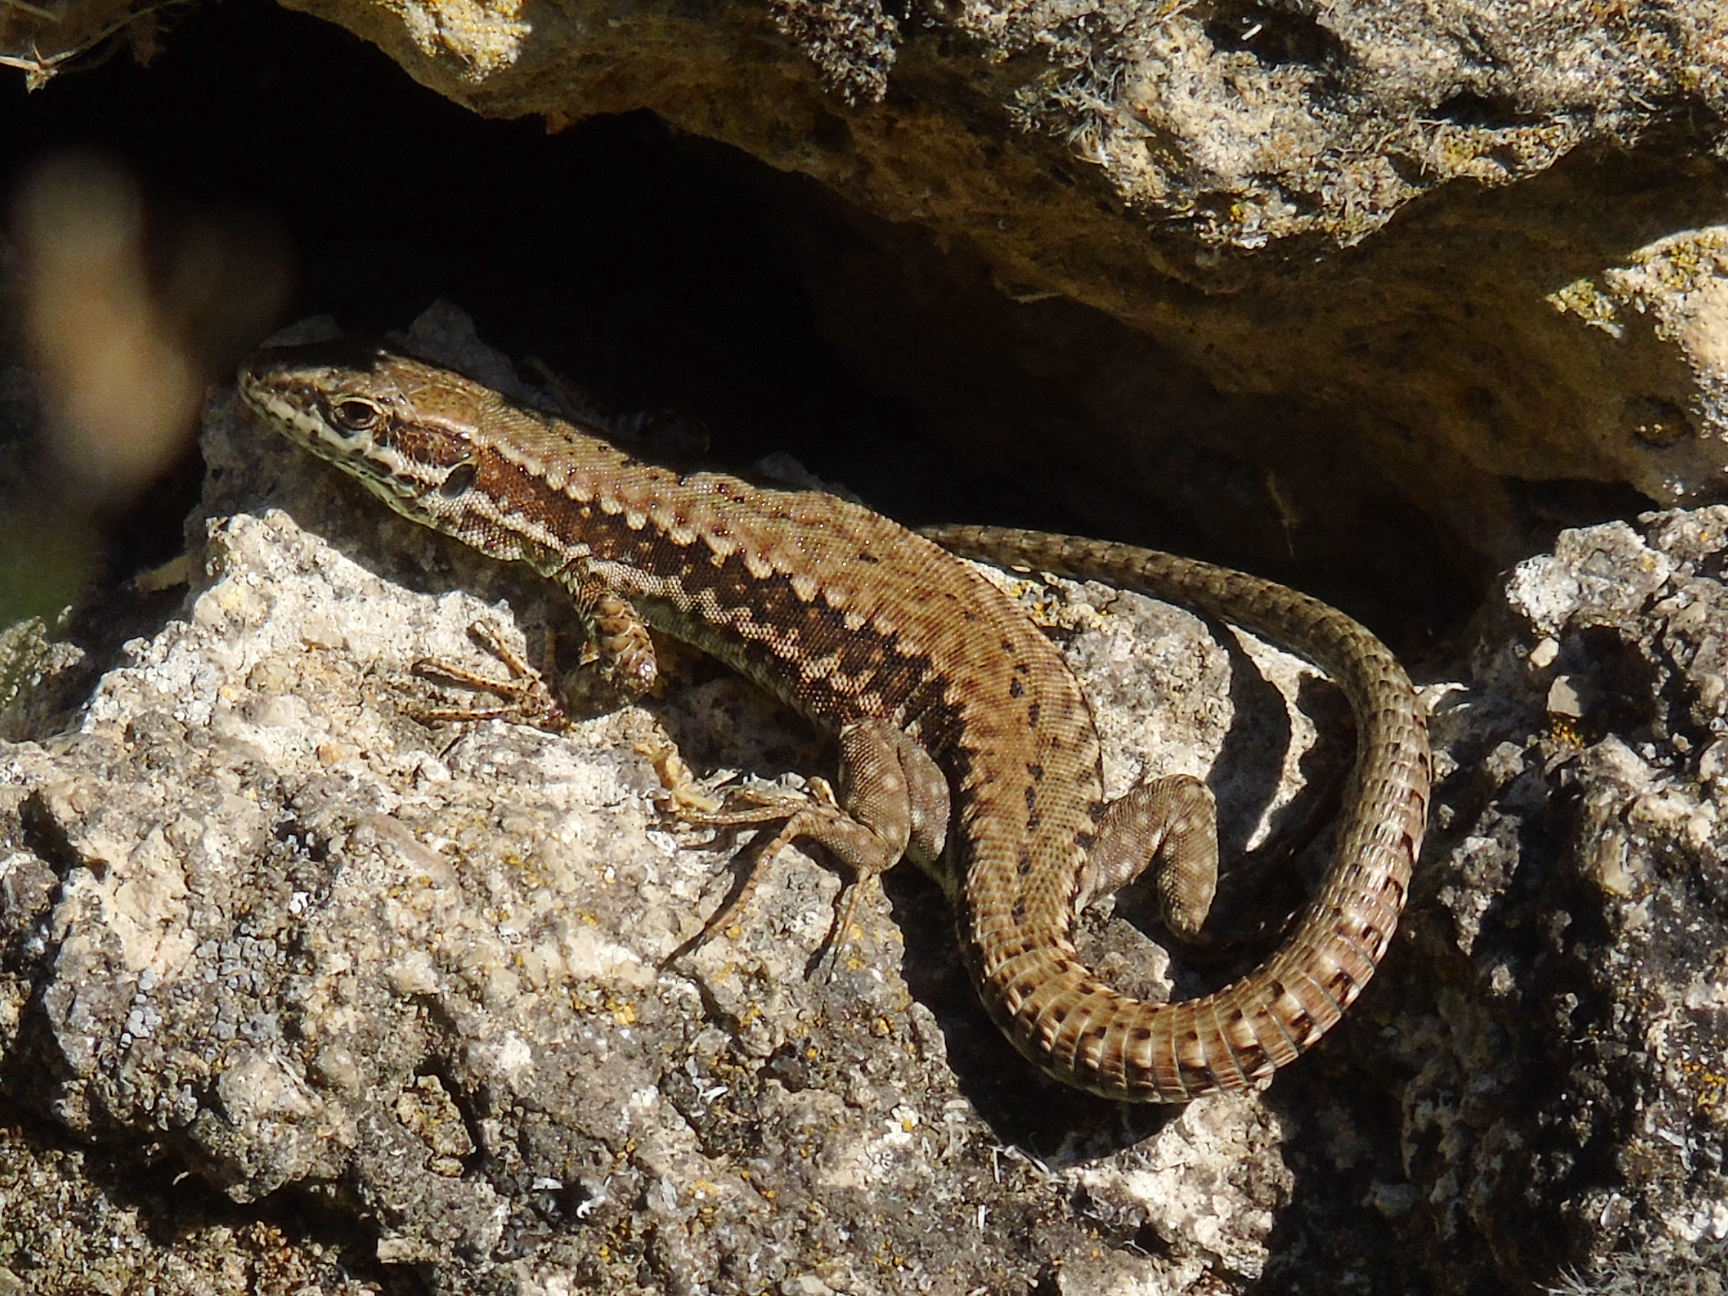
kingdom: Animalia
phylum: Chordata
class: Squamata
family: Lacertidae
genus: Podarcis
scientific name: Podarcis muralis
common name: Common wall lizard
